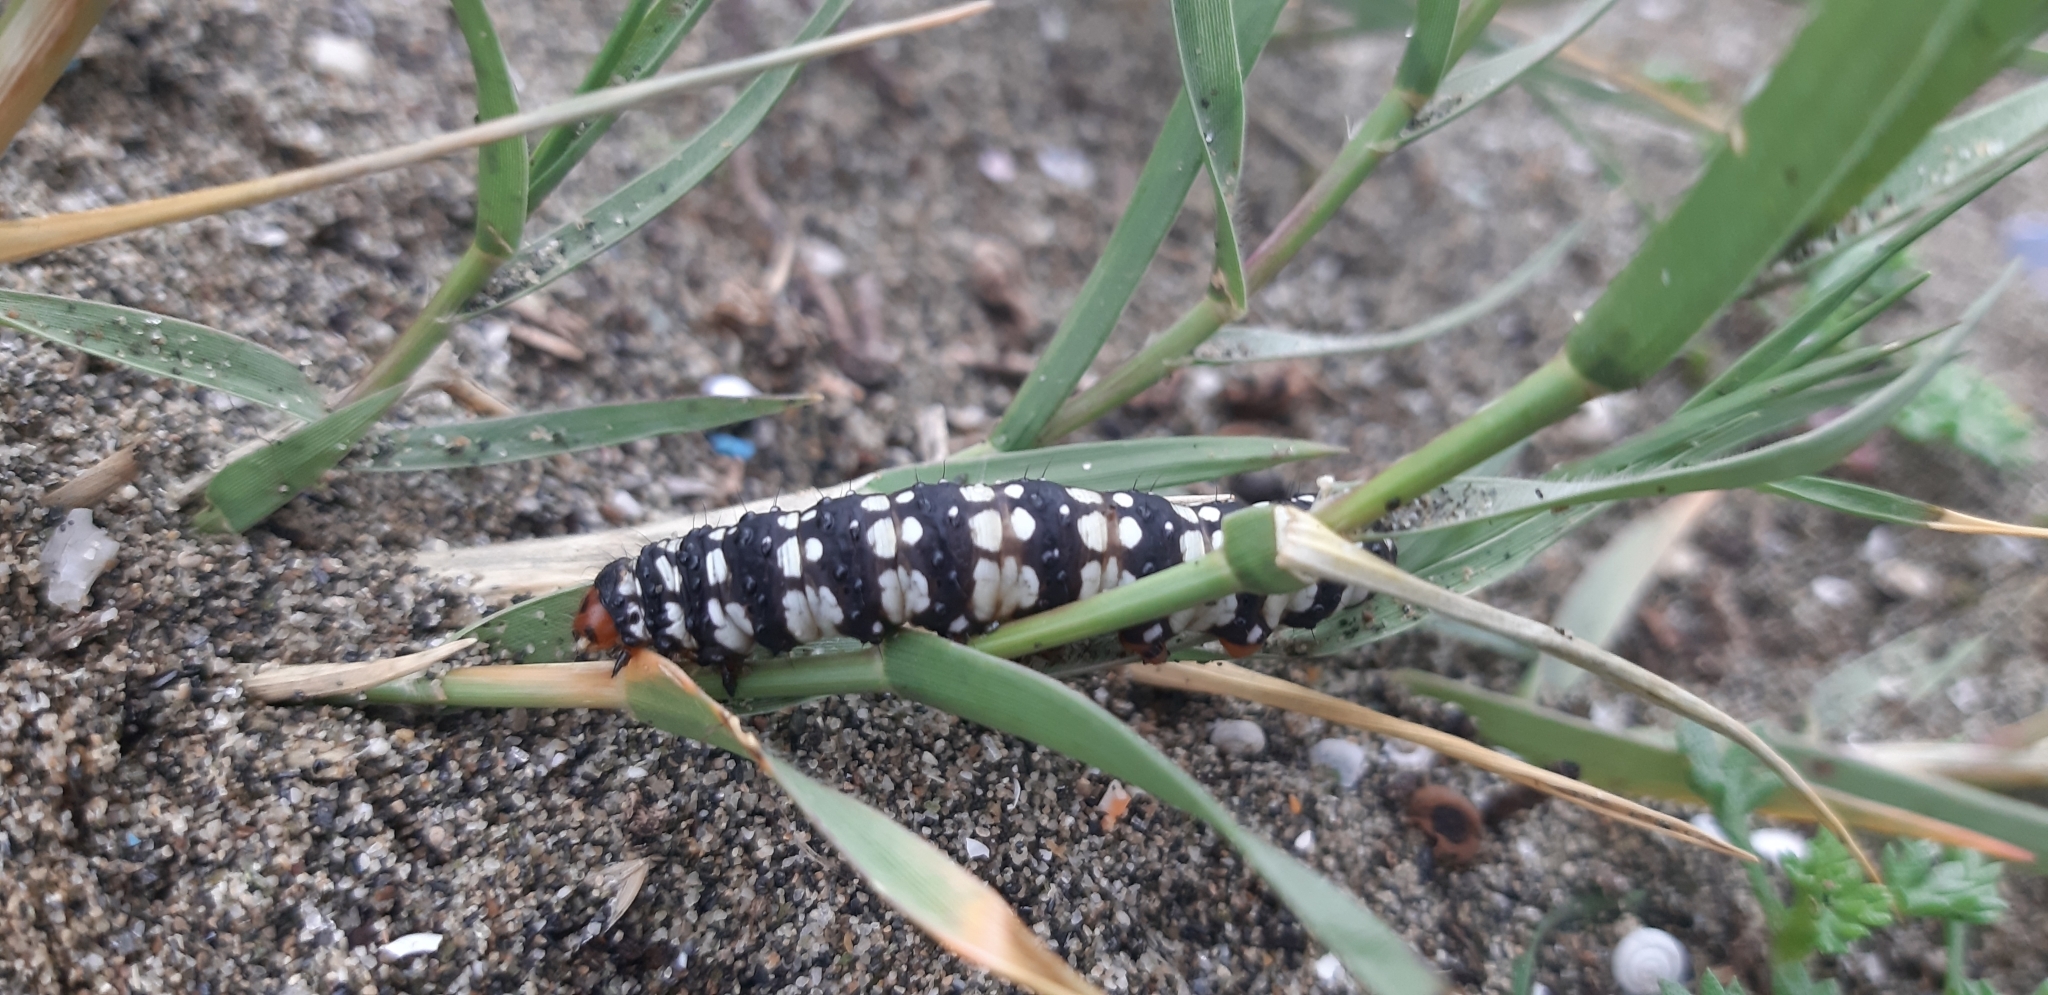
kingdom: Animalia
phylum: Arthropoda
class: Insecta
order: Lepidoptera
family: Noctuidae
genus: Brithys
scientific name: Brithys crini
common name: Kew arches
